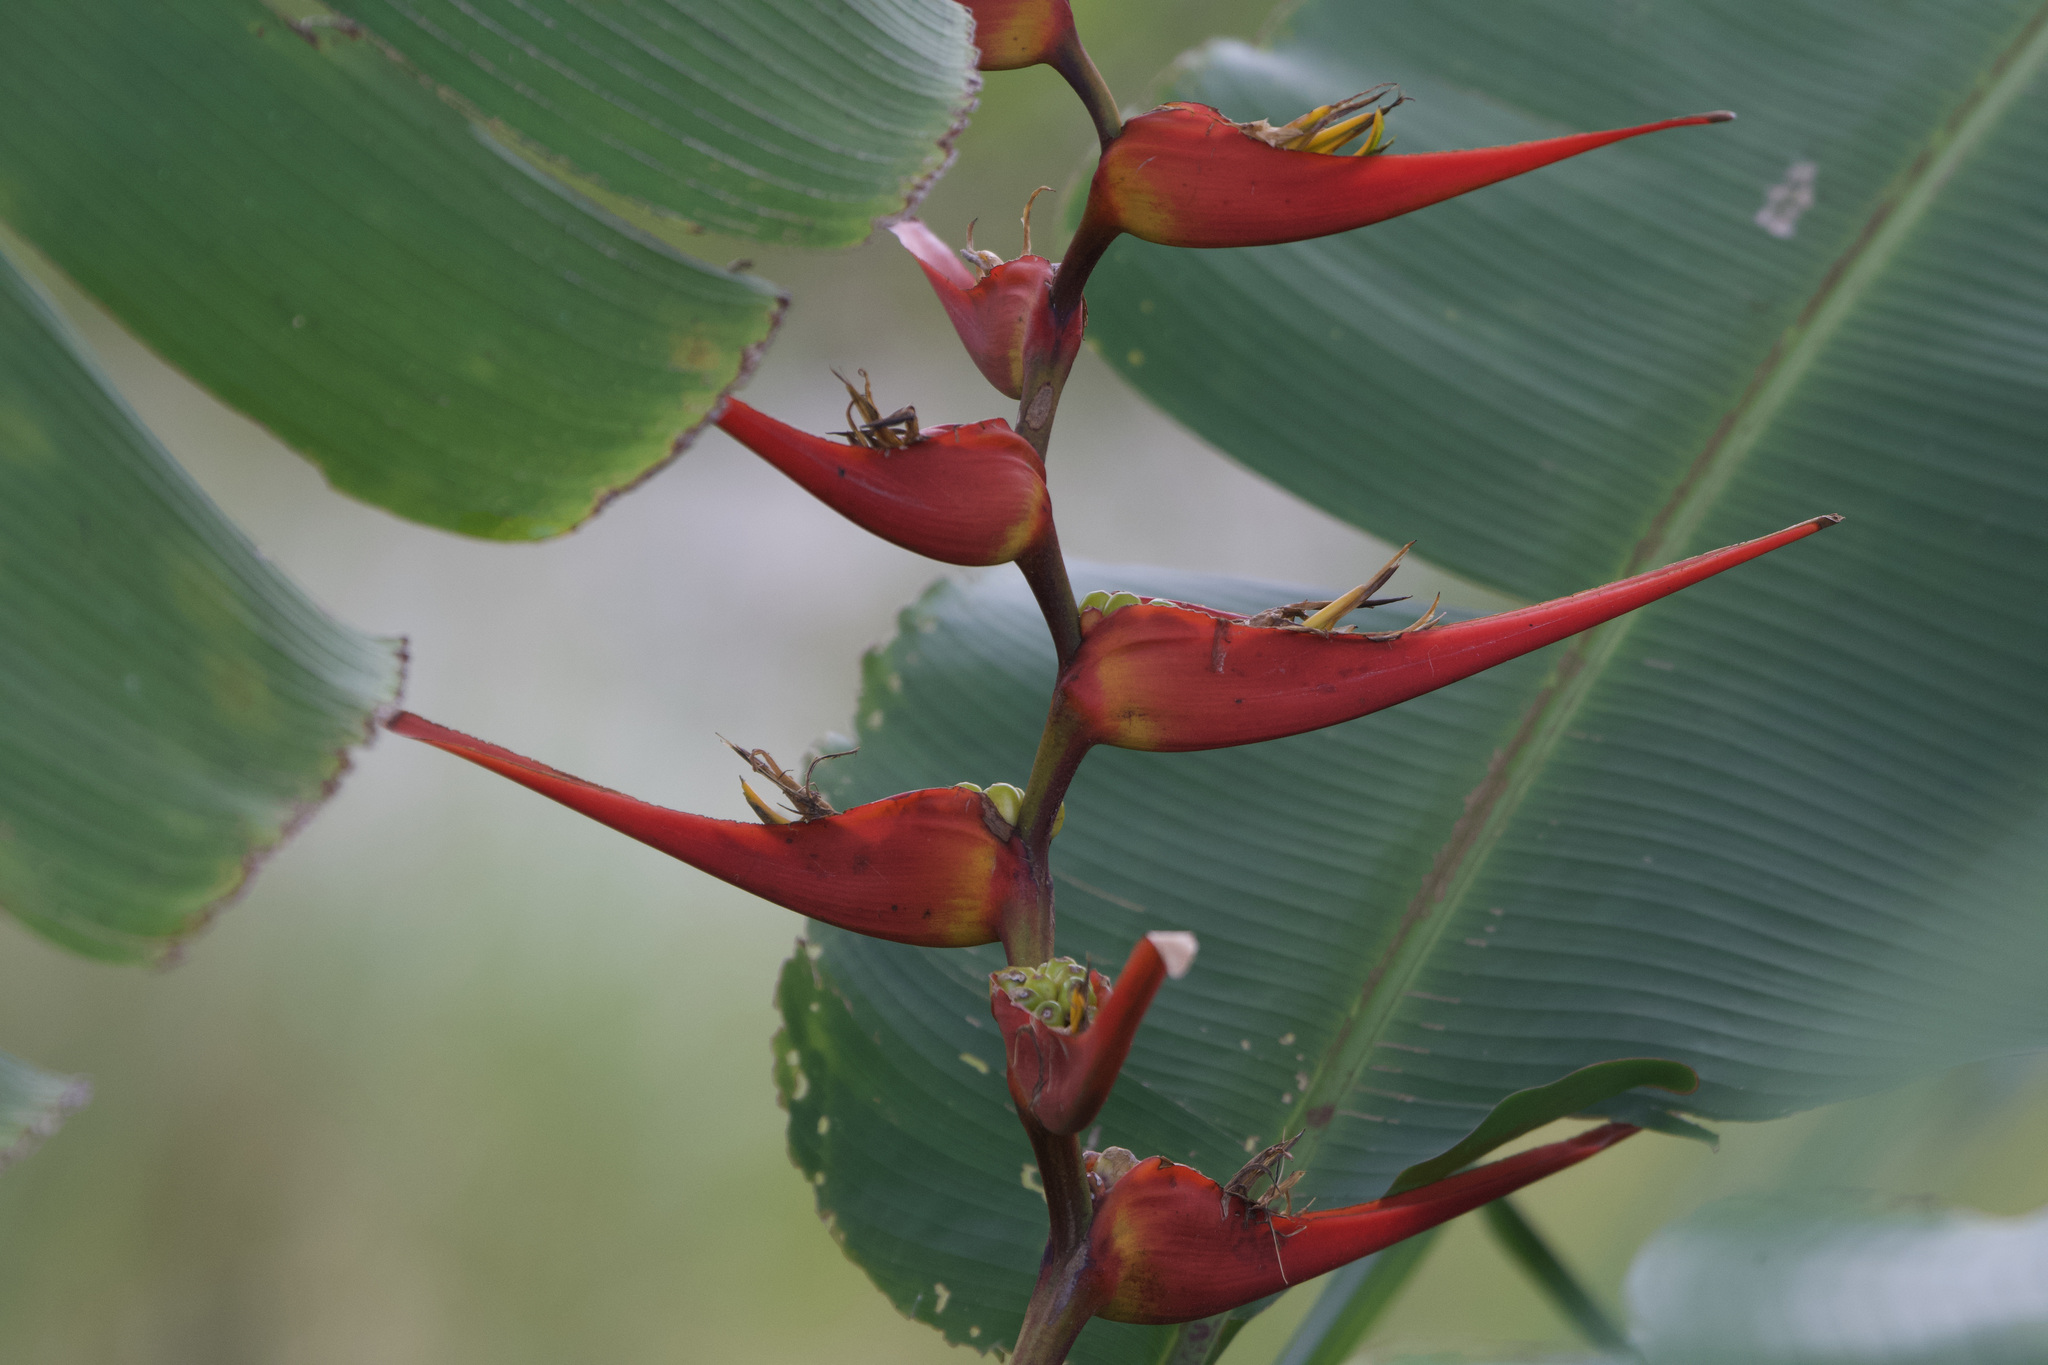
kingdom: Plantae
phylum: Tracheophyta
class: Liliopsida
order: Zingiberales
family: Heliconiaceae
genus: Heliconia
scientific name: Heliconia latispatha
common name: Expanded lobsterclaw
